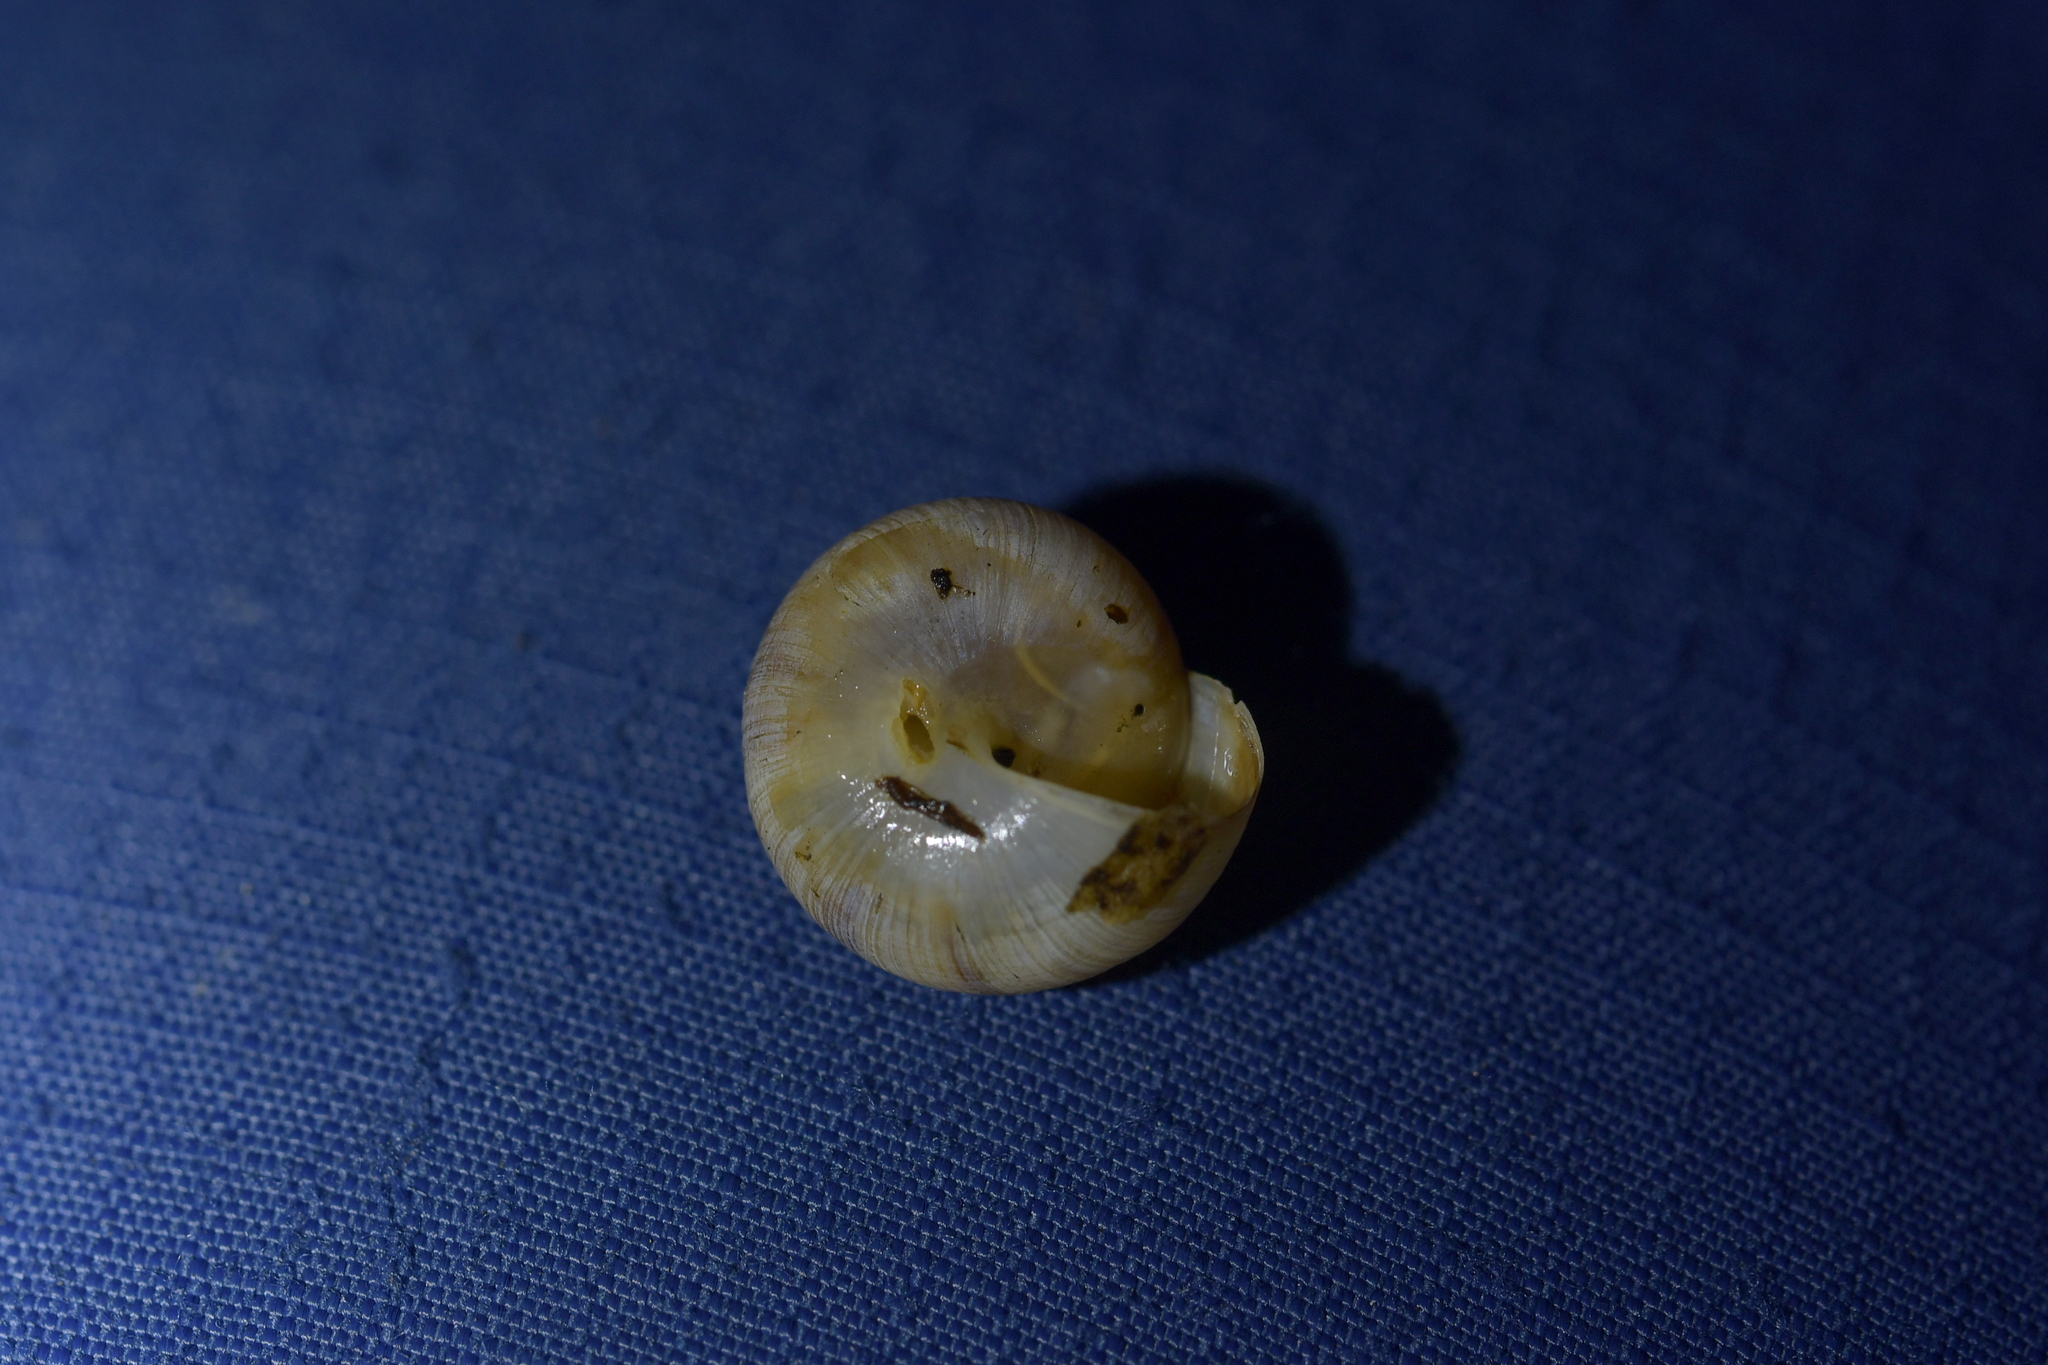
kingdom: Animalia
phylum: Mollusca
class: Gastropoda
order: Stylommatophora
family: Charopidae
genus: Serpho
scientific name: Serpho
